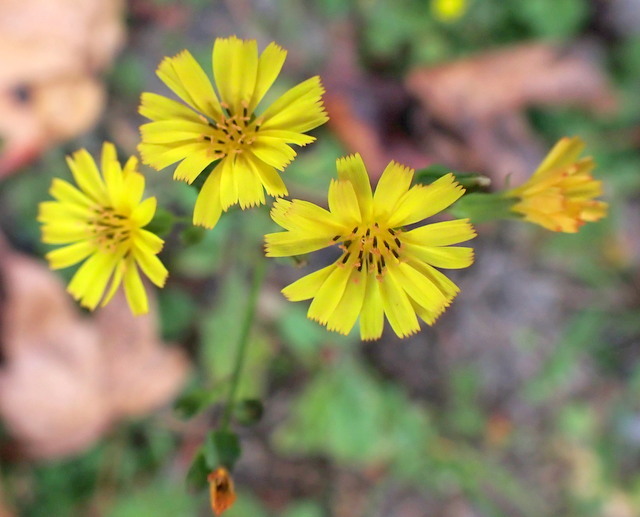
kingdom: Plantae
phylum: Tracheophyta
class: Magnoliopsida
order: Asterales
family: Asteraceae
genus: Youngia
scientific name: Youngia japonica
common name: Oriental false hawksbeard
